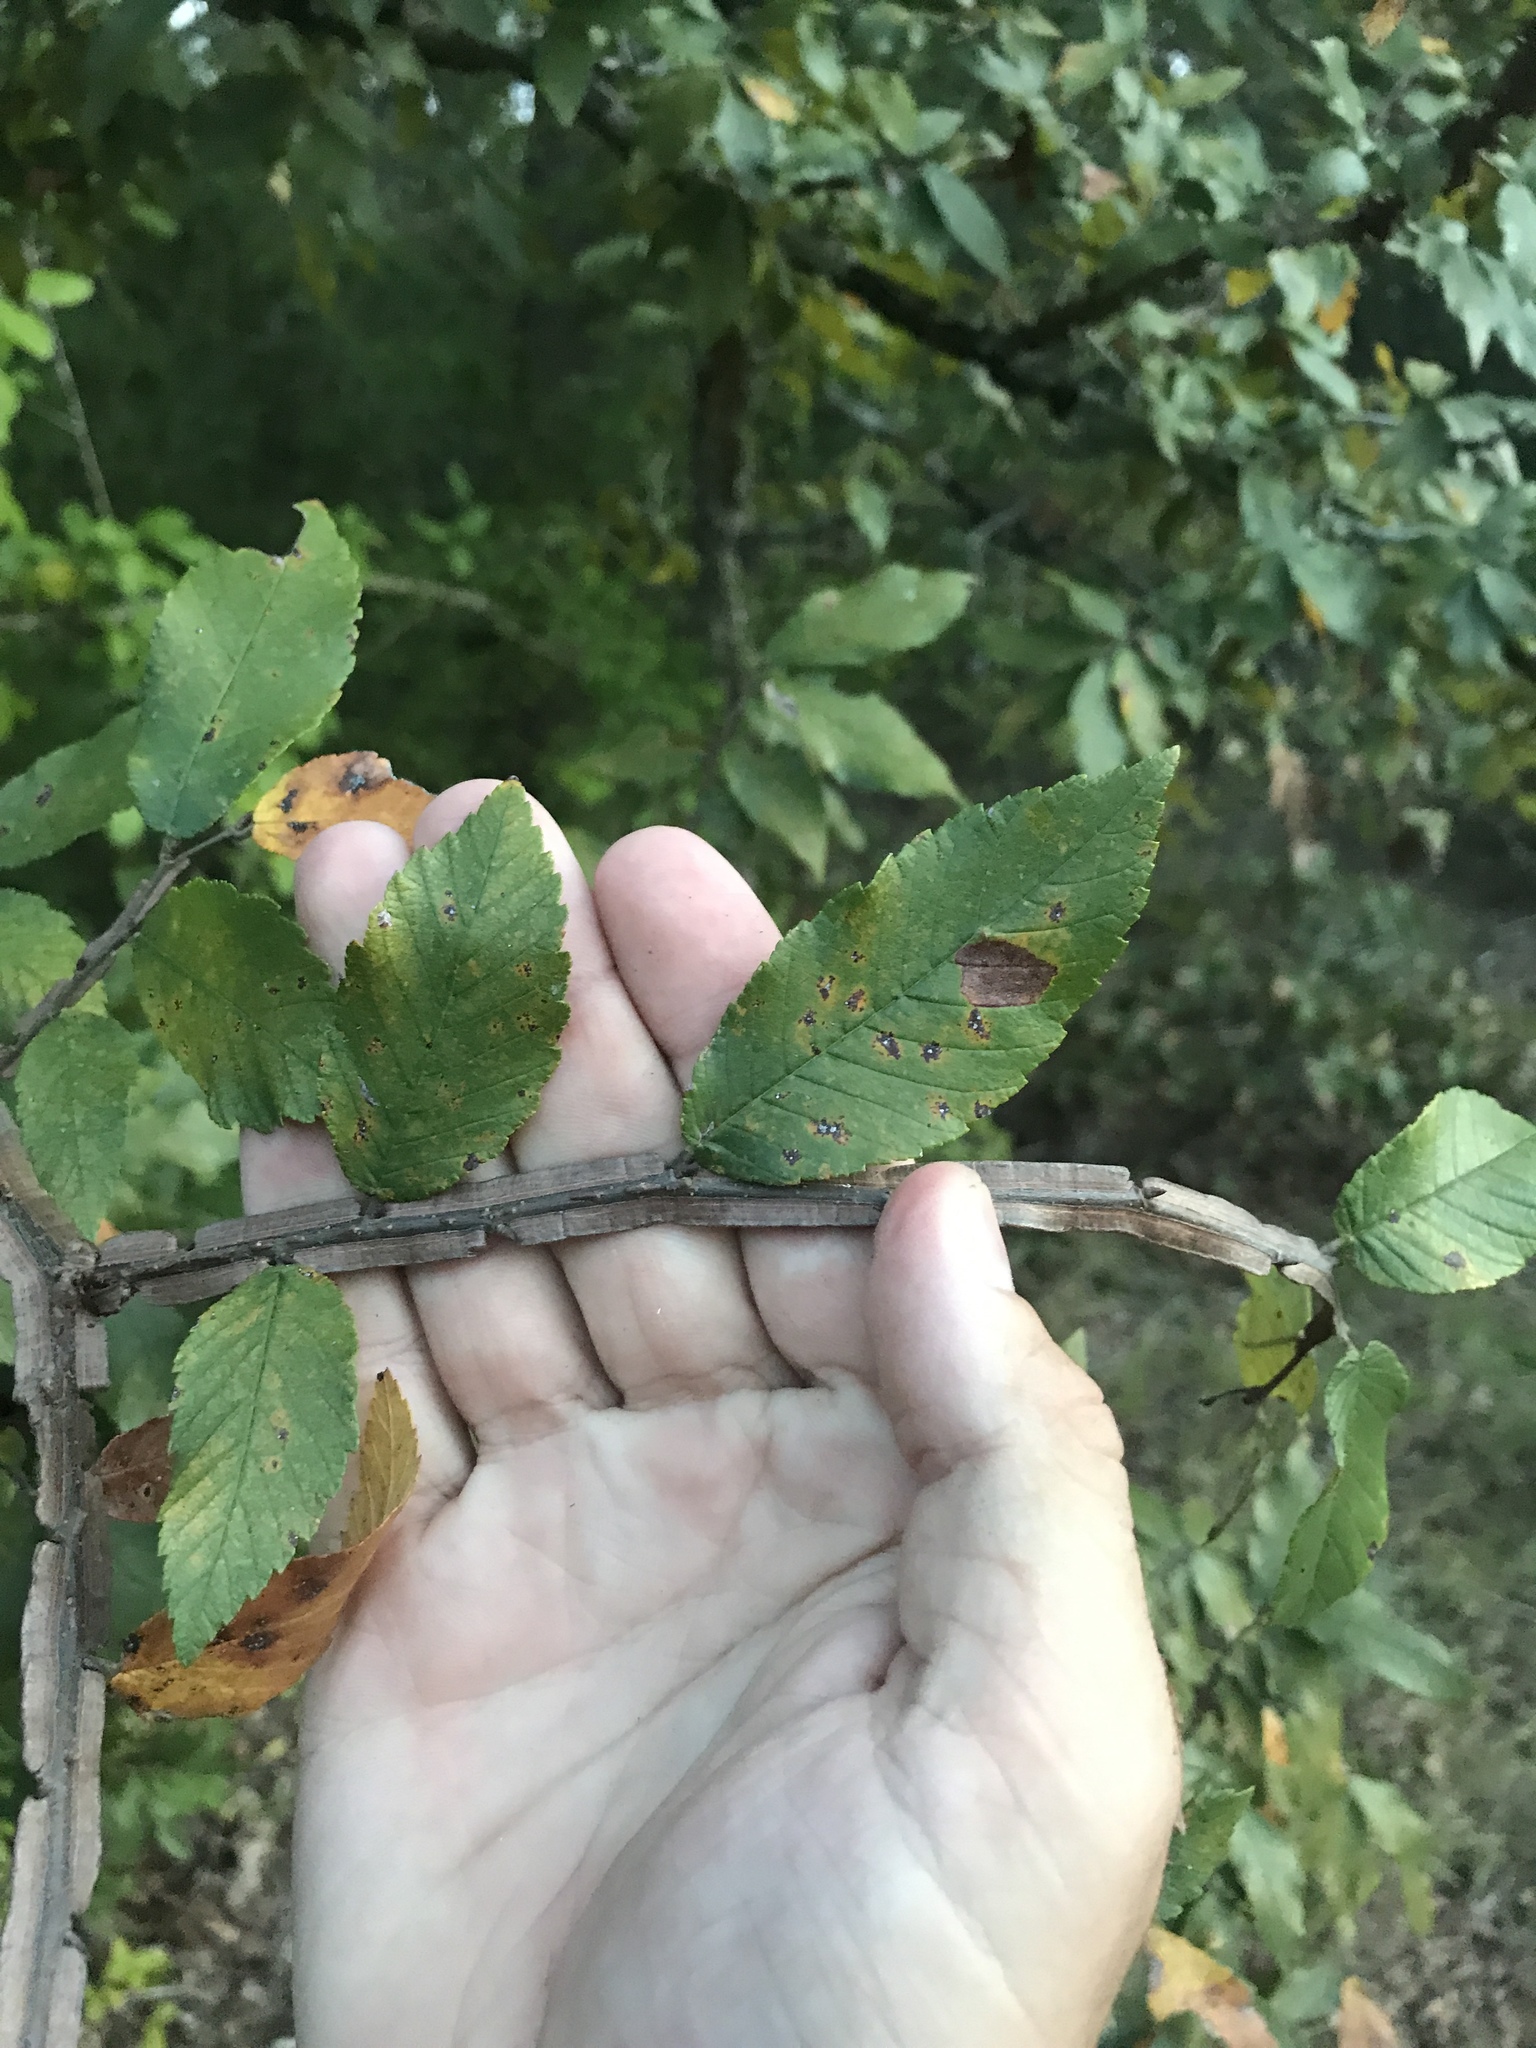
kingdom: Plantae
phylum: Tracheophyta
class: Magnoliopsida
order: Rosales
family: Ulmaceae
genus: Ulmus
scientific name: Ulmus alata
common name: Winged elm
